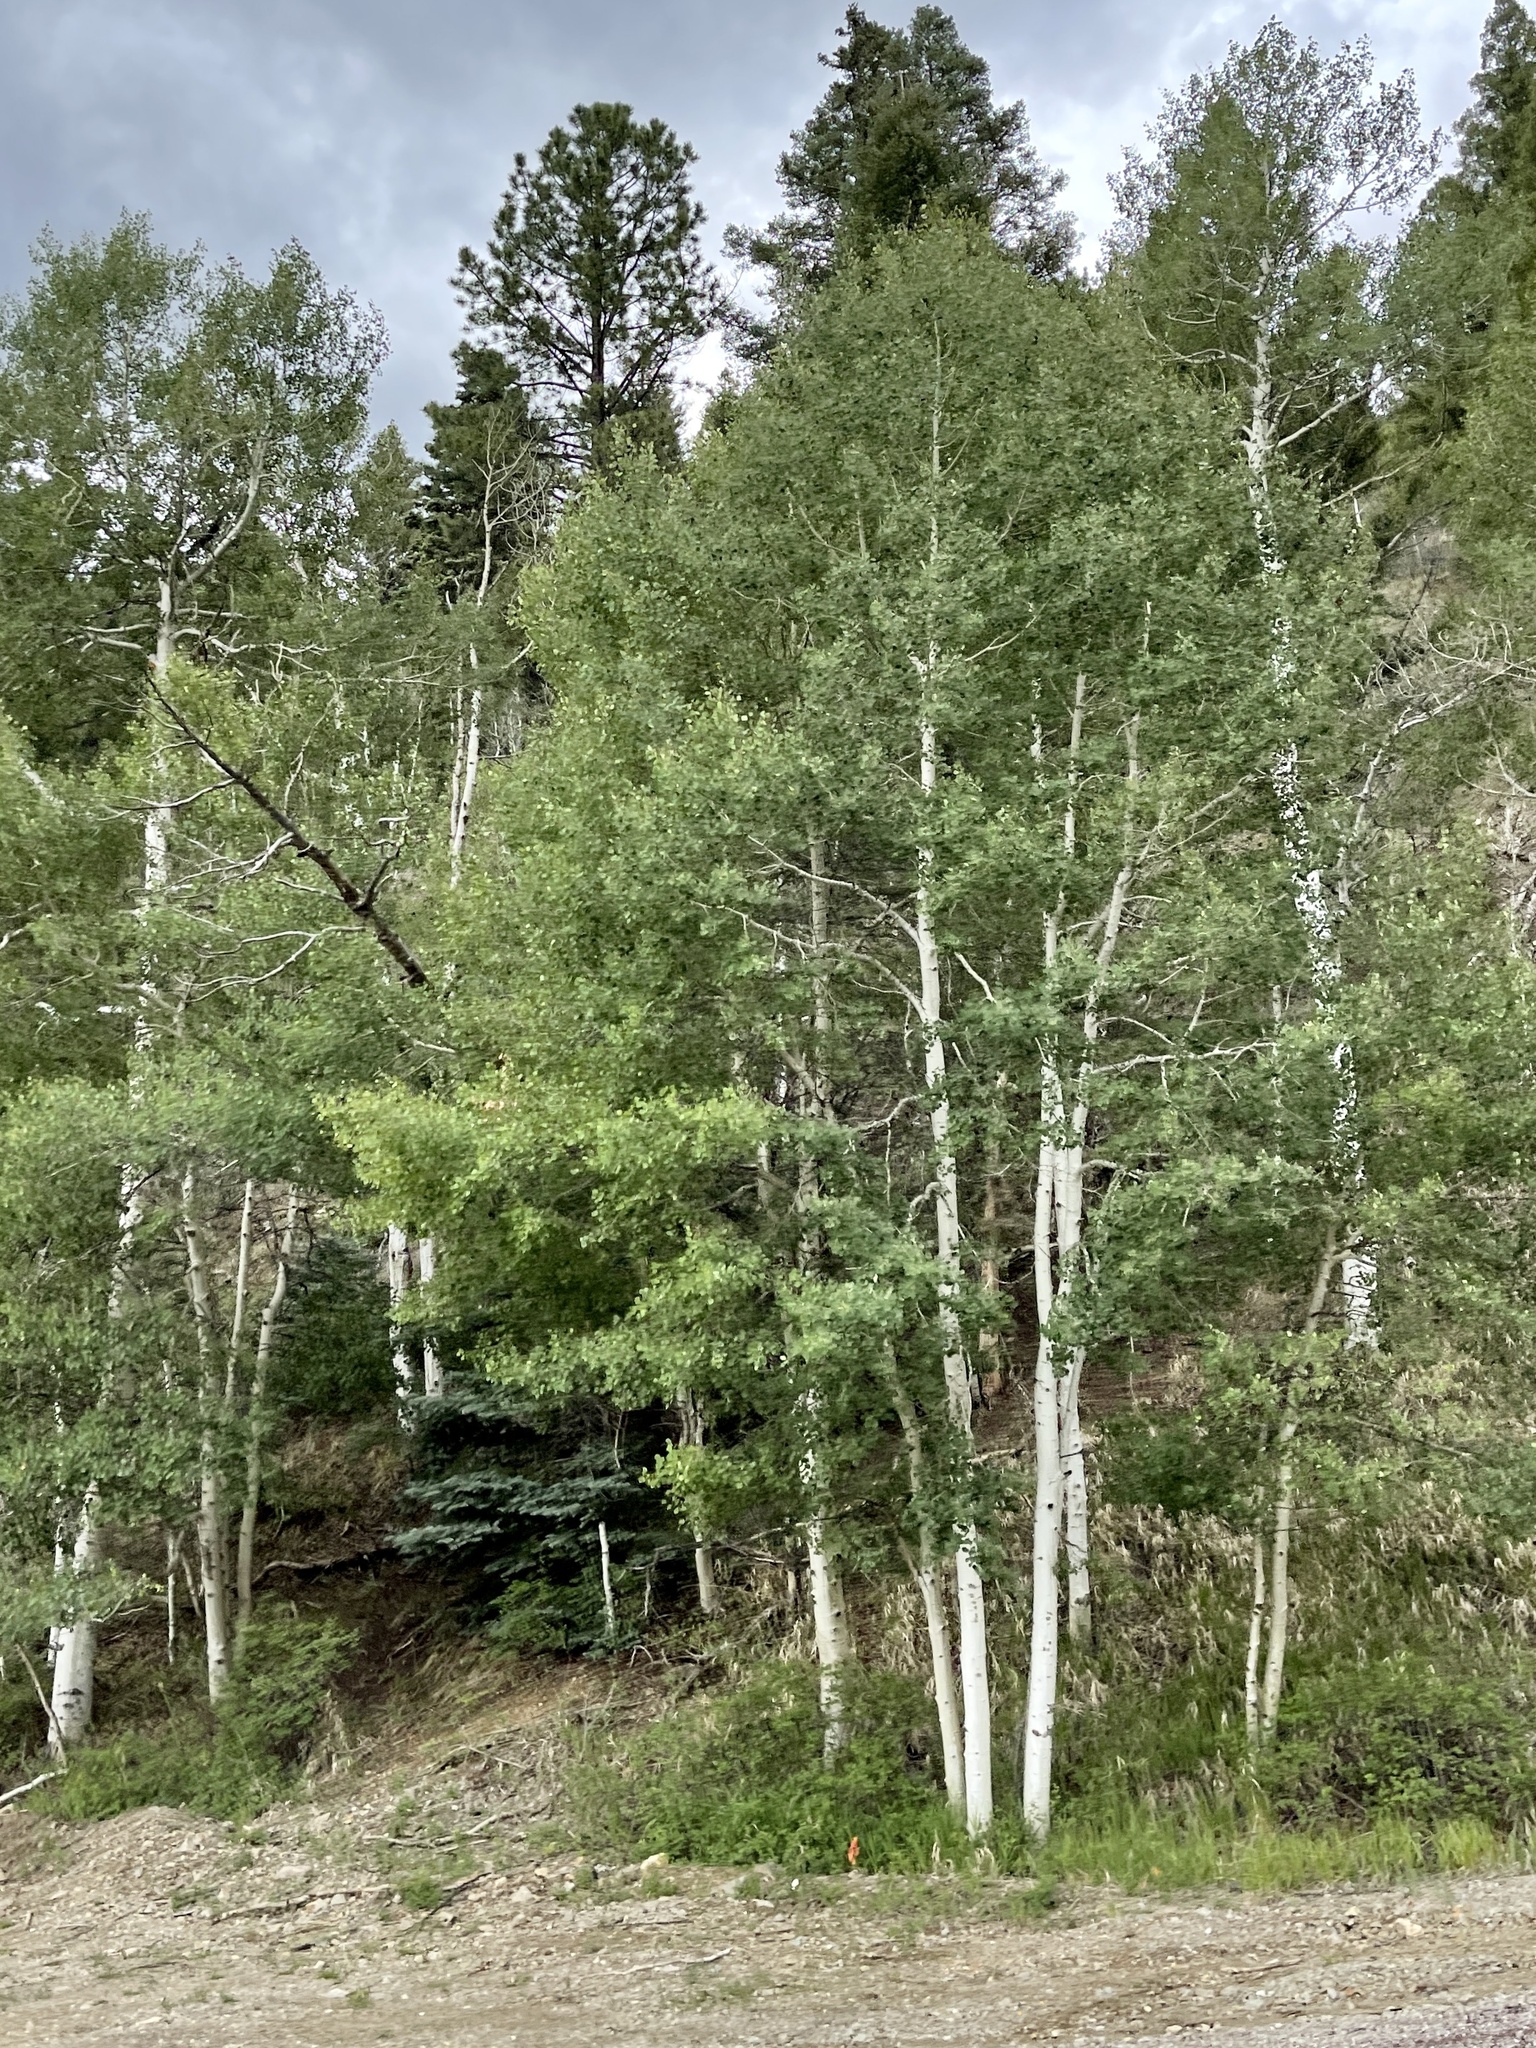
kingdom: Plantae
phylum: Tracheophyta
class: Magnoliopsida
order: Malpighiales
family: Salicaceae
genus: Populus
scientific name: Populus tremuloides
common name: Quaking aspen
